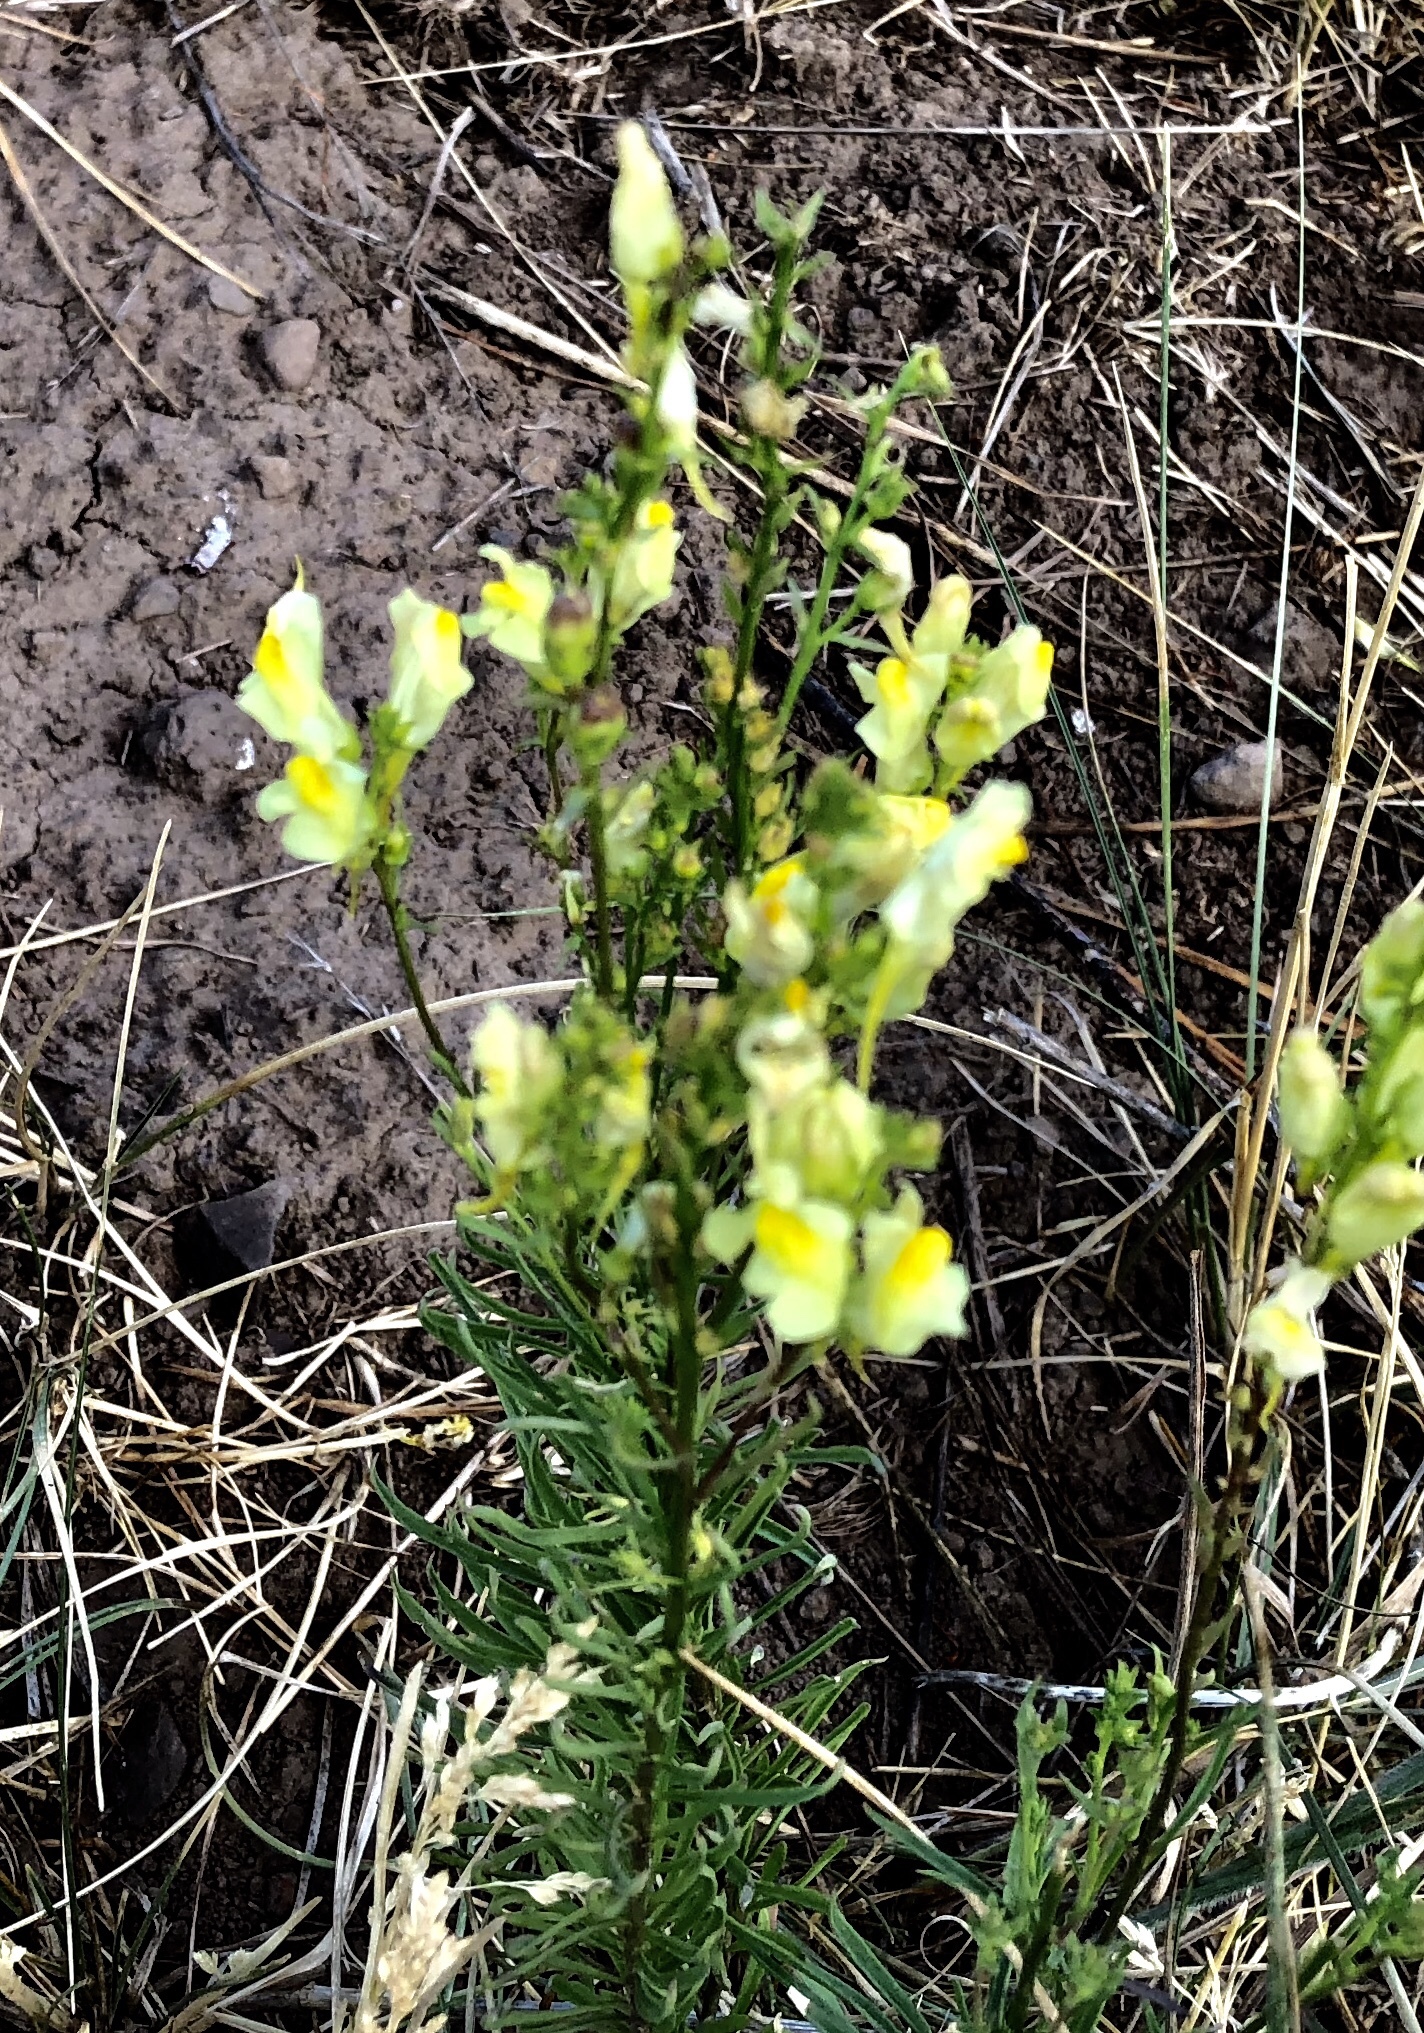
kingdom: Plantae
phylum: Tracheophyta
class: Magnoliopsida
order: Lamiales
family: Plantaginaceae
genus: Linaria
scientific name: Linaria vulgaris
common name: Butter and eggs
